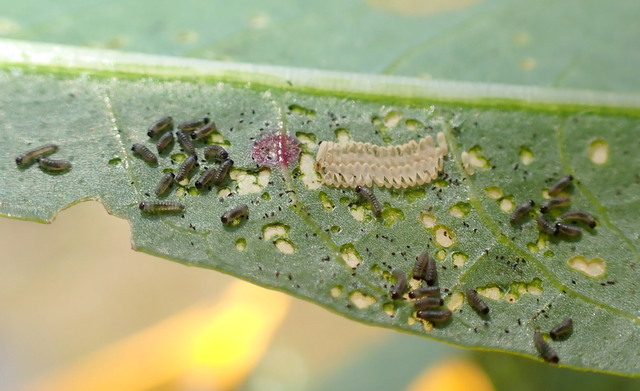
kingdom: Animalia
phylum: Arthropoda
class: Insecta
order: Coleoptera
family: Chrysomelidae
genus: Agasicles
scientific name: Agasicles hygrophila
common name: Alligatorweed flea beetle
